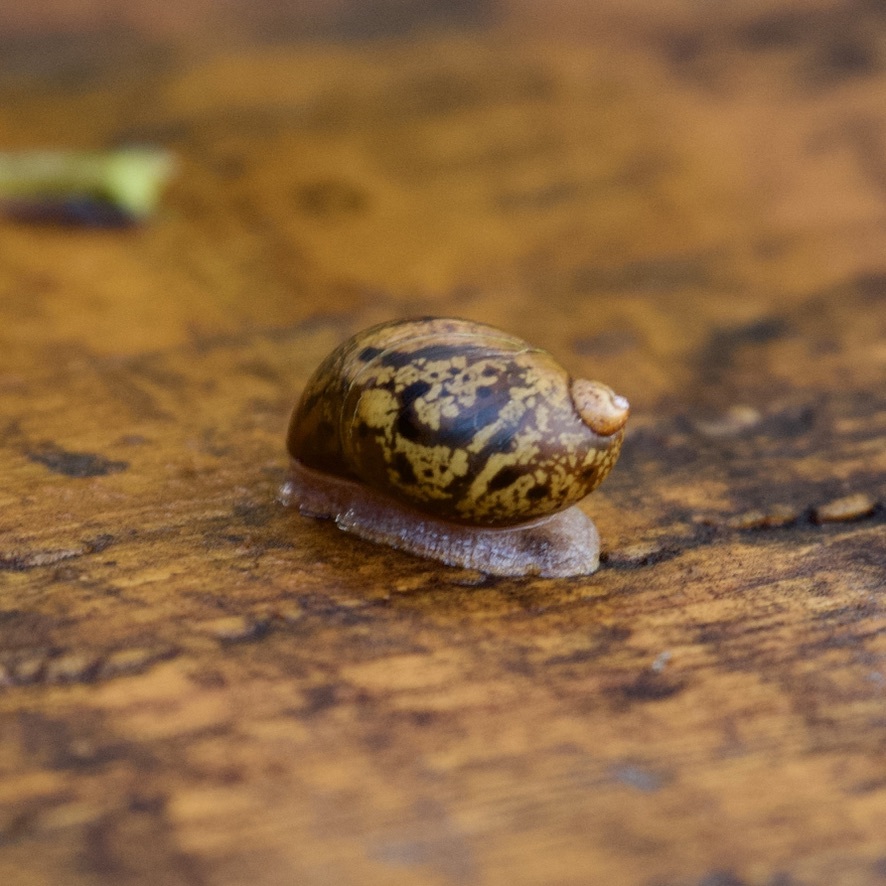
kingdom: Animalia
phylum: Mollusca
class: Gastropoda
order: Stylommatophora
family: Succineidae
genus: Novisuccinea
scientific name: Novisuccinea ovalis
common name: Oval ambersnail
